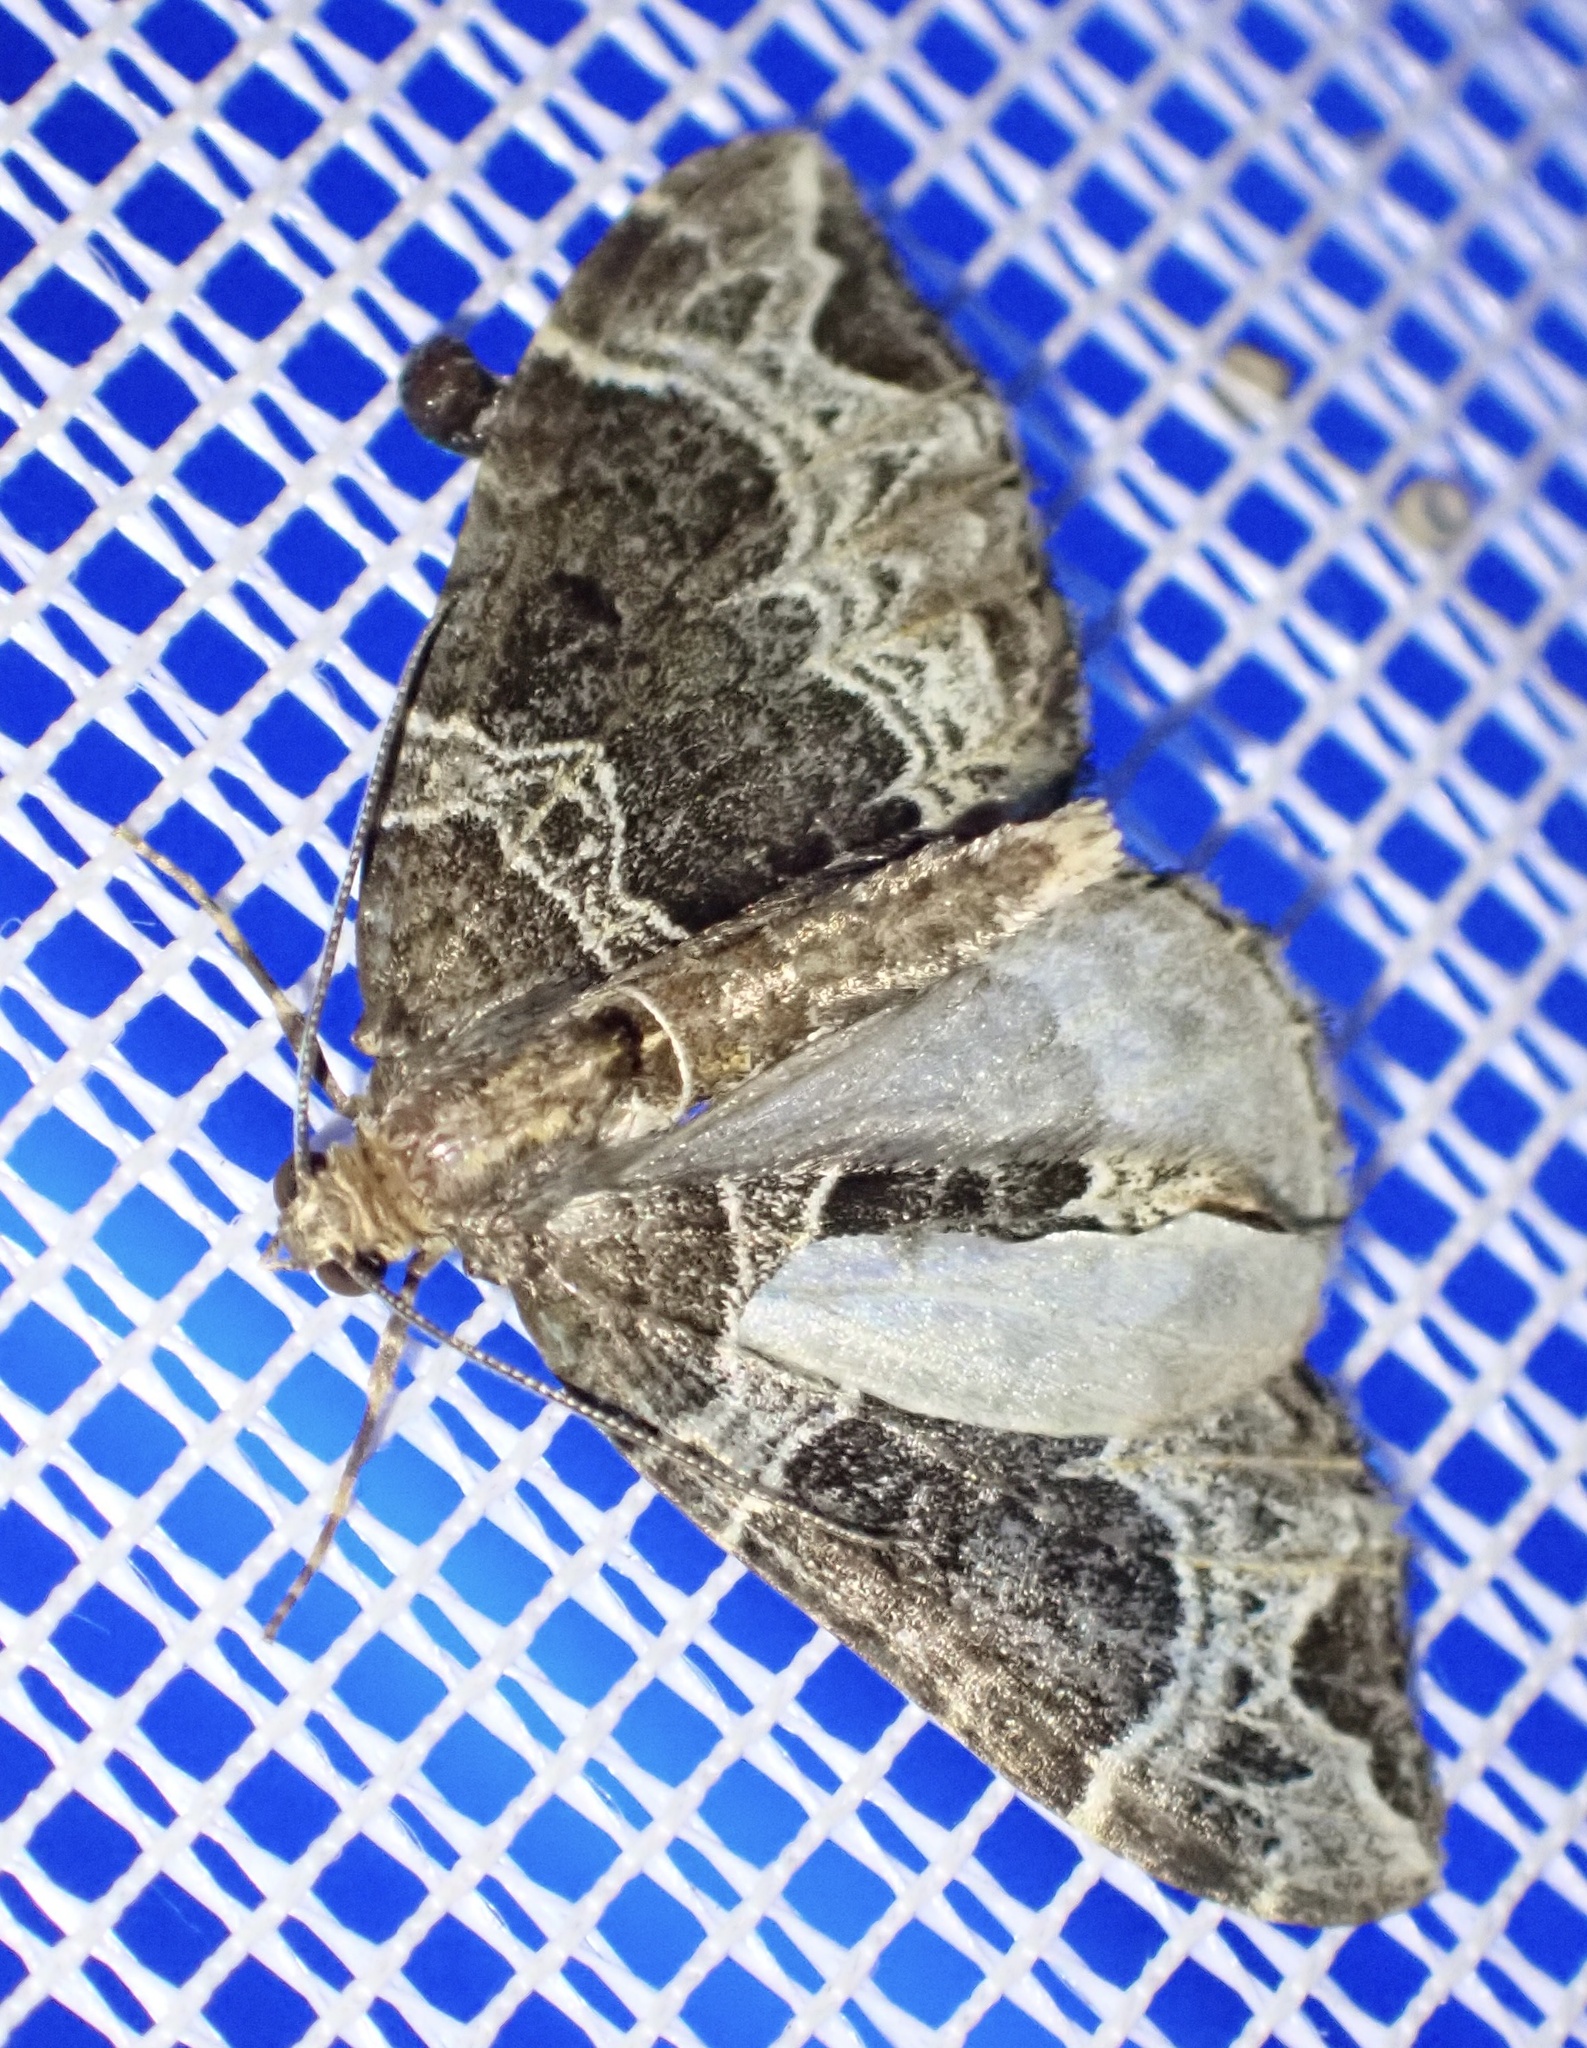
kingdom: Animalia
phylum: Arthropoda
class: Insecta
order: Lepidoptera
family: Geometridae
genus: Ecliptopera
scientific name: Ecliptopera silaceata
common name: Small phoenix
